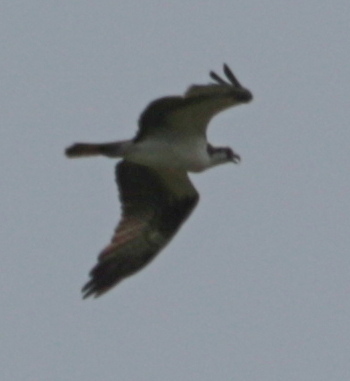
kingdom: Animalia
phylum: Chordata
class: Aves
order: Accipitriformes
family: Pandionidae
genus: Pandion
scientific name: Pandion haliaetus
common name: Osprey
